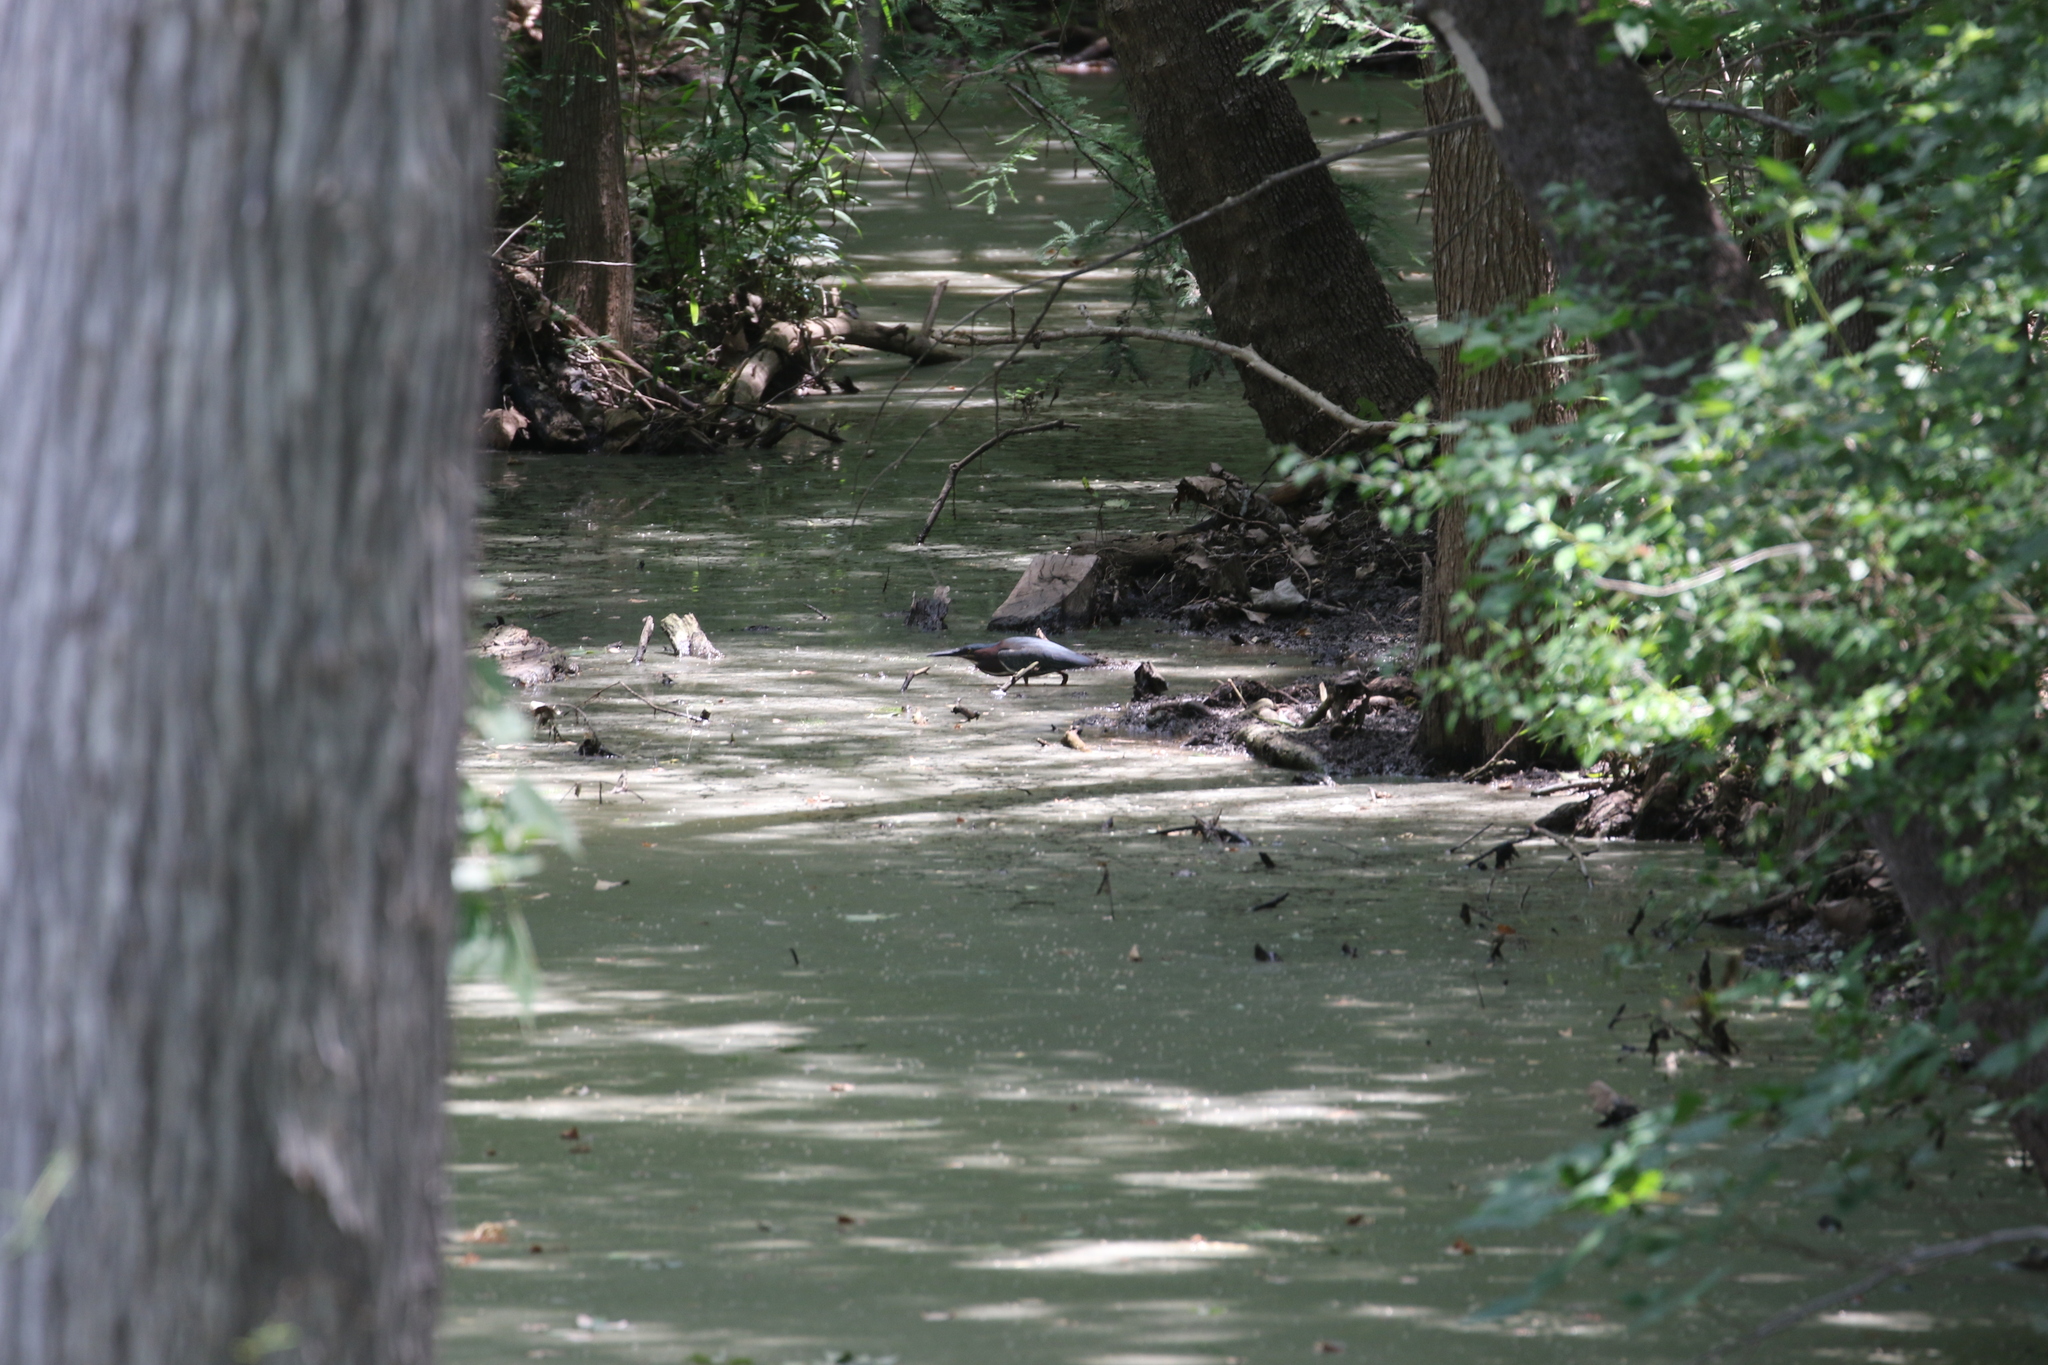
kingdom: Animalia
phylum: Chordata
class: Aves
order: Pelecaniformes
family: Ardeidae
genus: Butorides
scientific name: Butorides virescens
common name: Green heron
